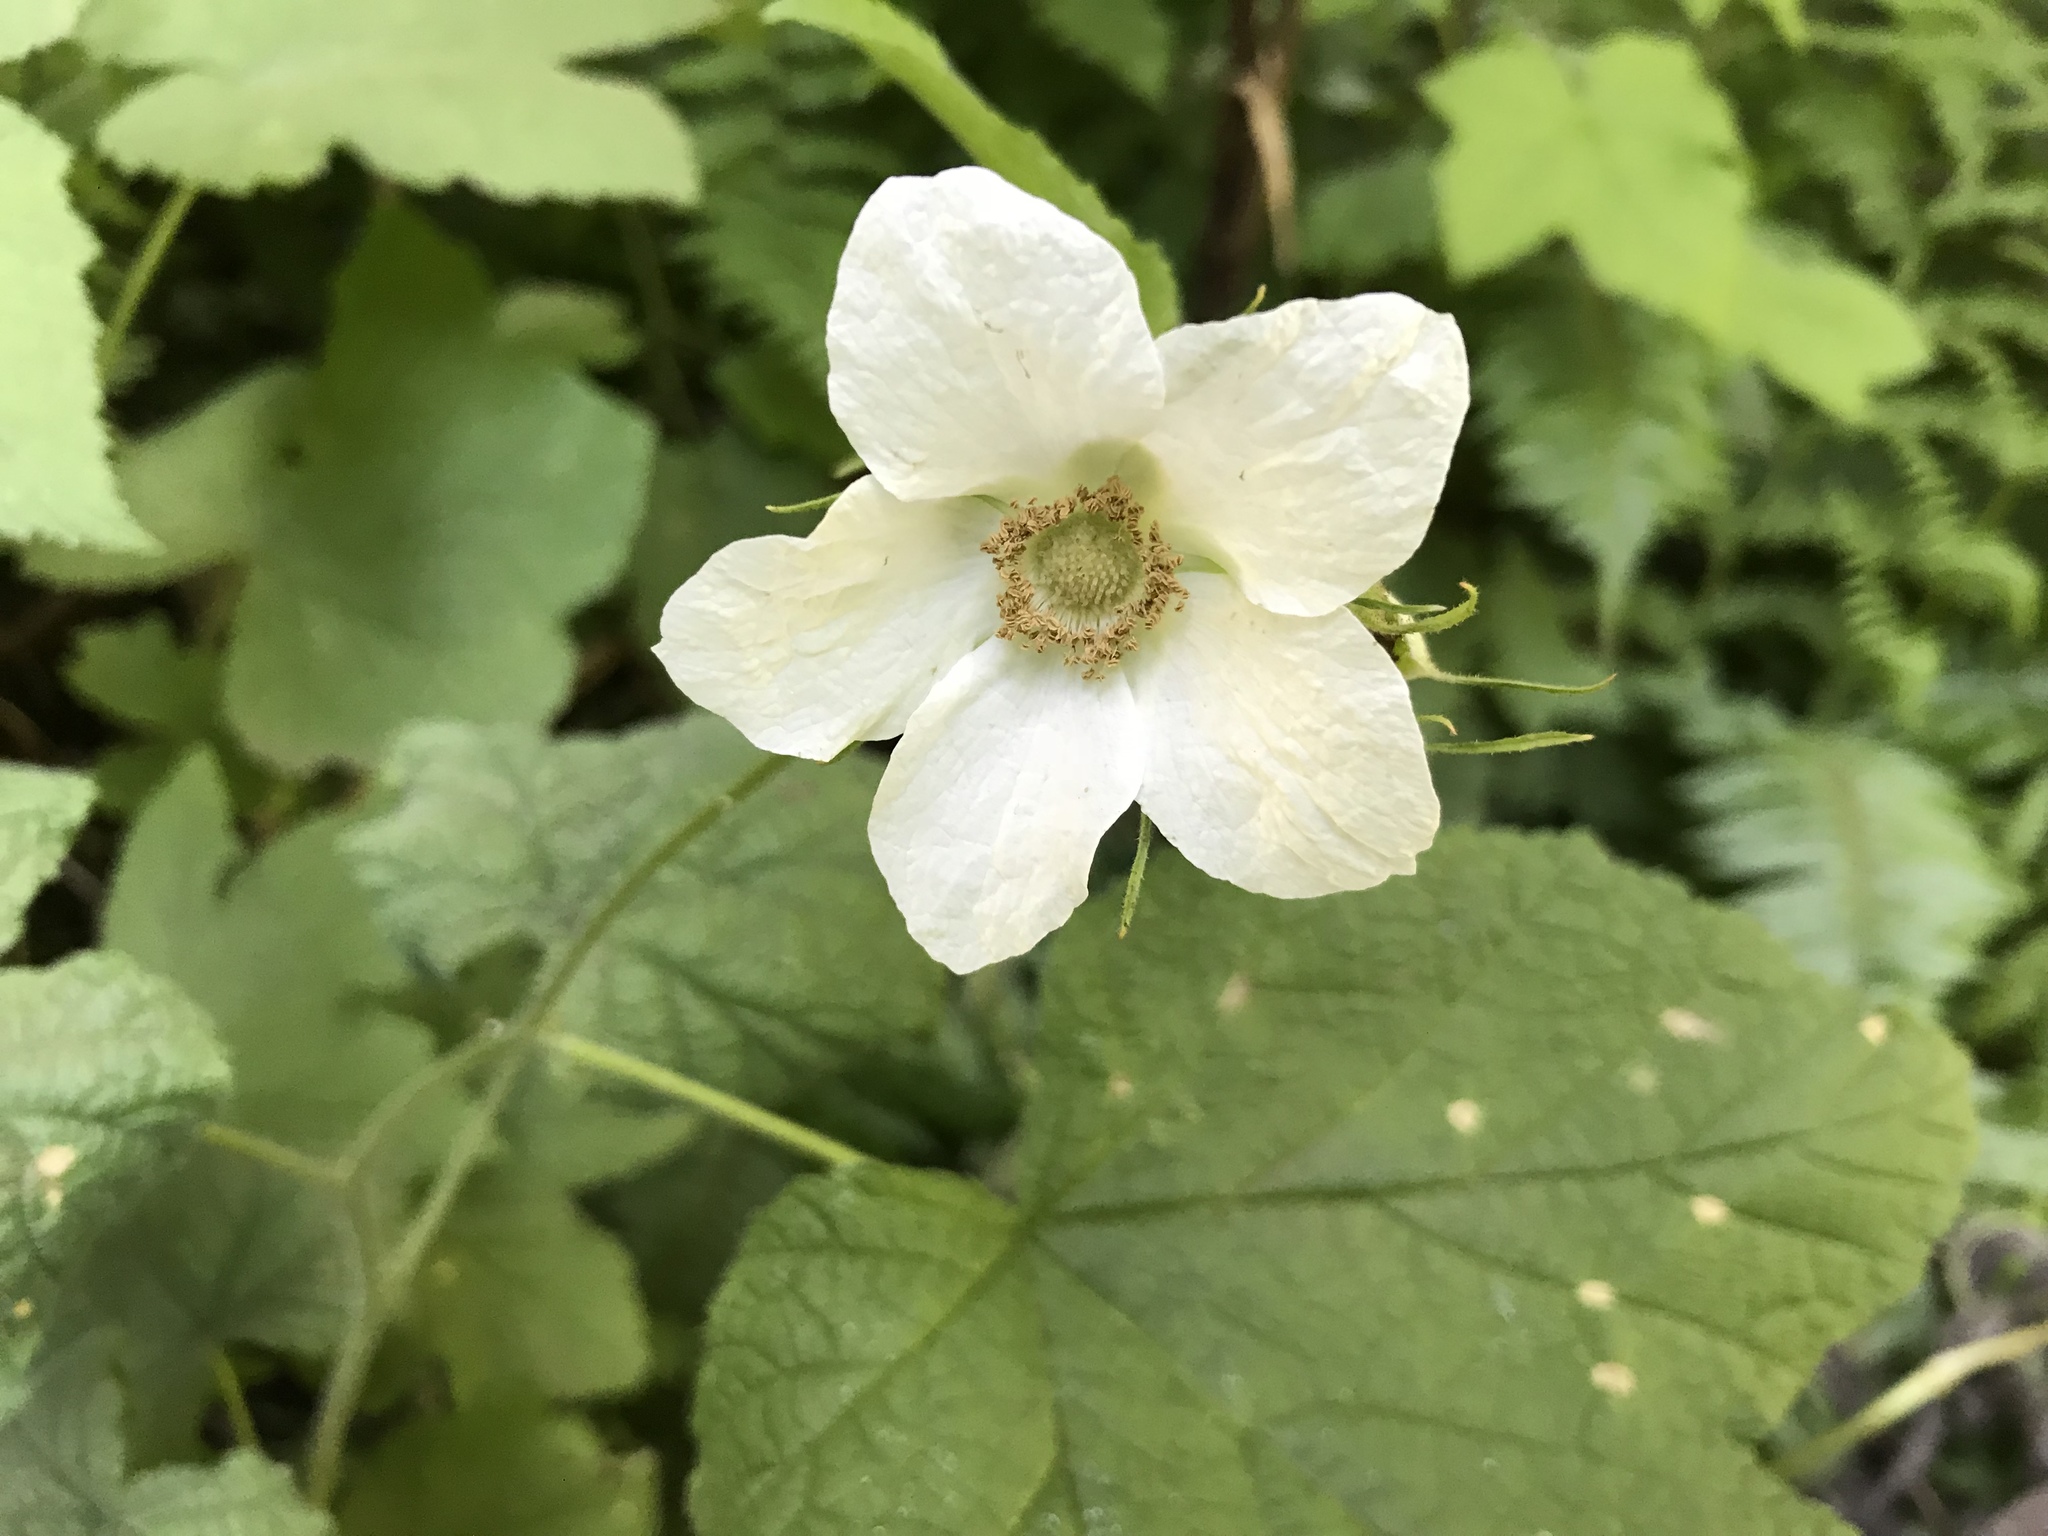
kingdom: Plantae
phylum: Tracheophyta
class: Magnoliopsida
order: Rosales
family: Rosaceae
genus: Rubus
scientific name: Rubus parviflorus
